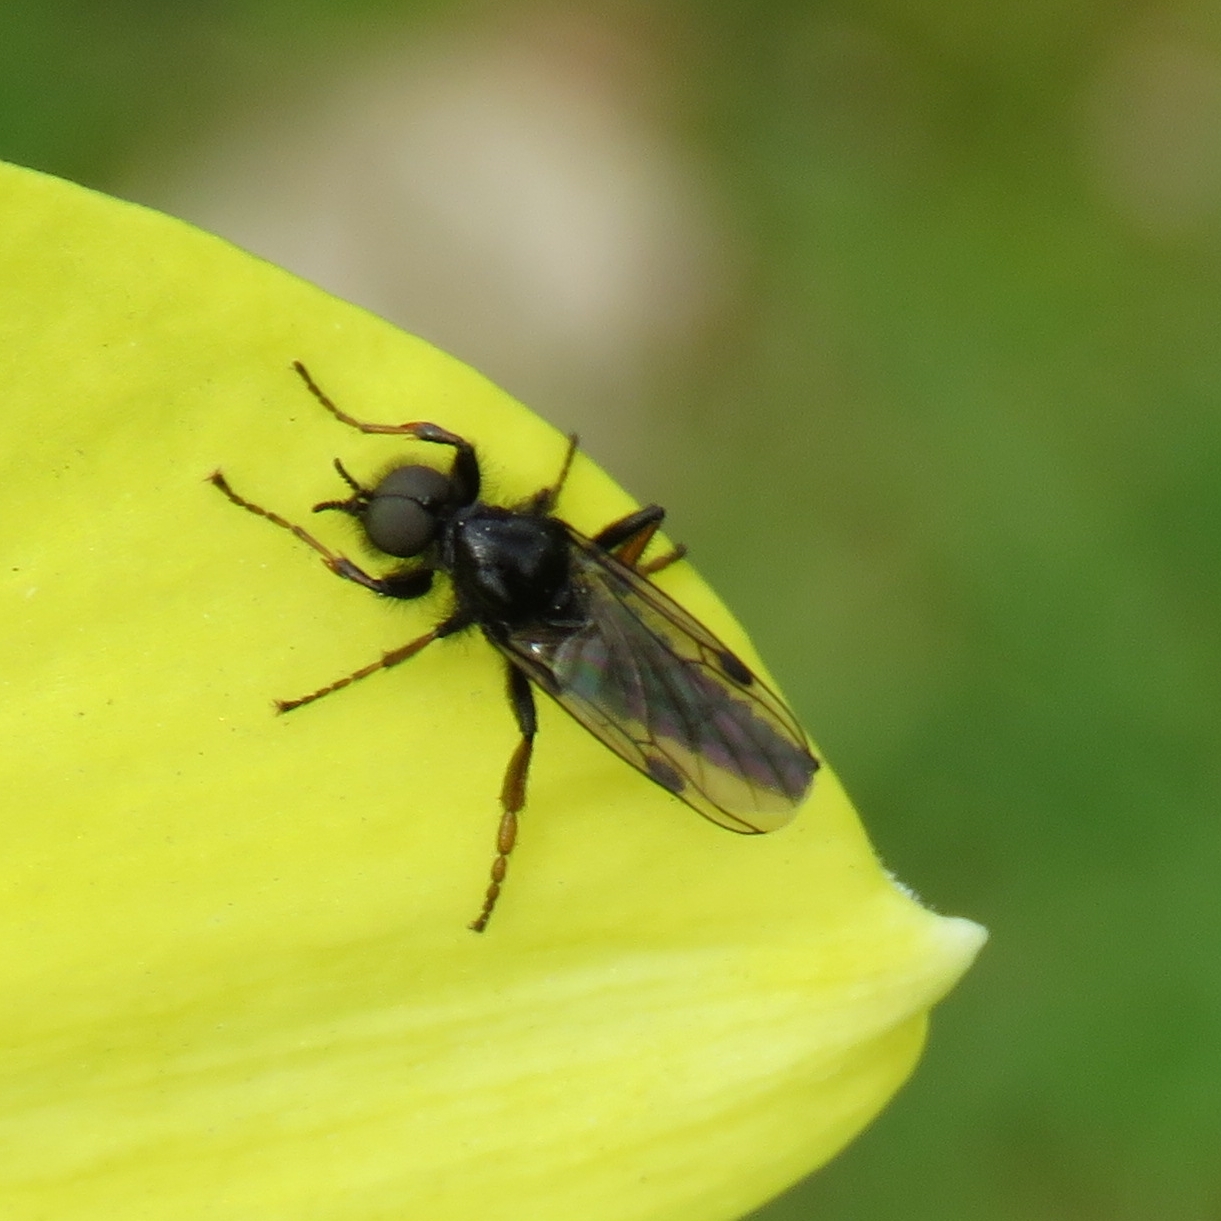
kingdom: Animalia
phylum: Arthropoda
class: Insecta
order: Diptera
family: Bibionidae
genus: Bibio
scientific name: Bibio johannis
